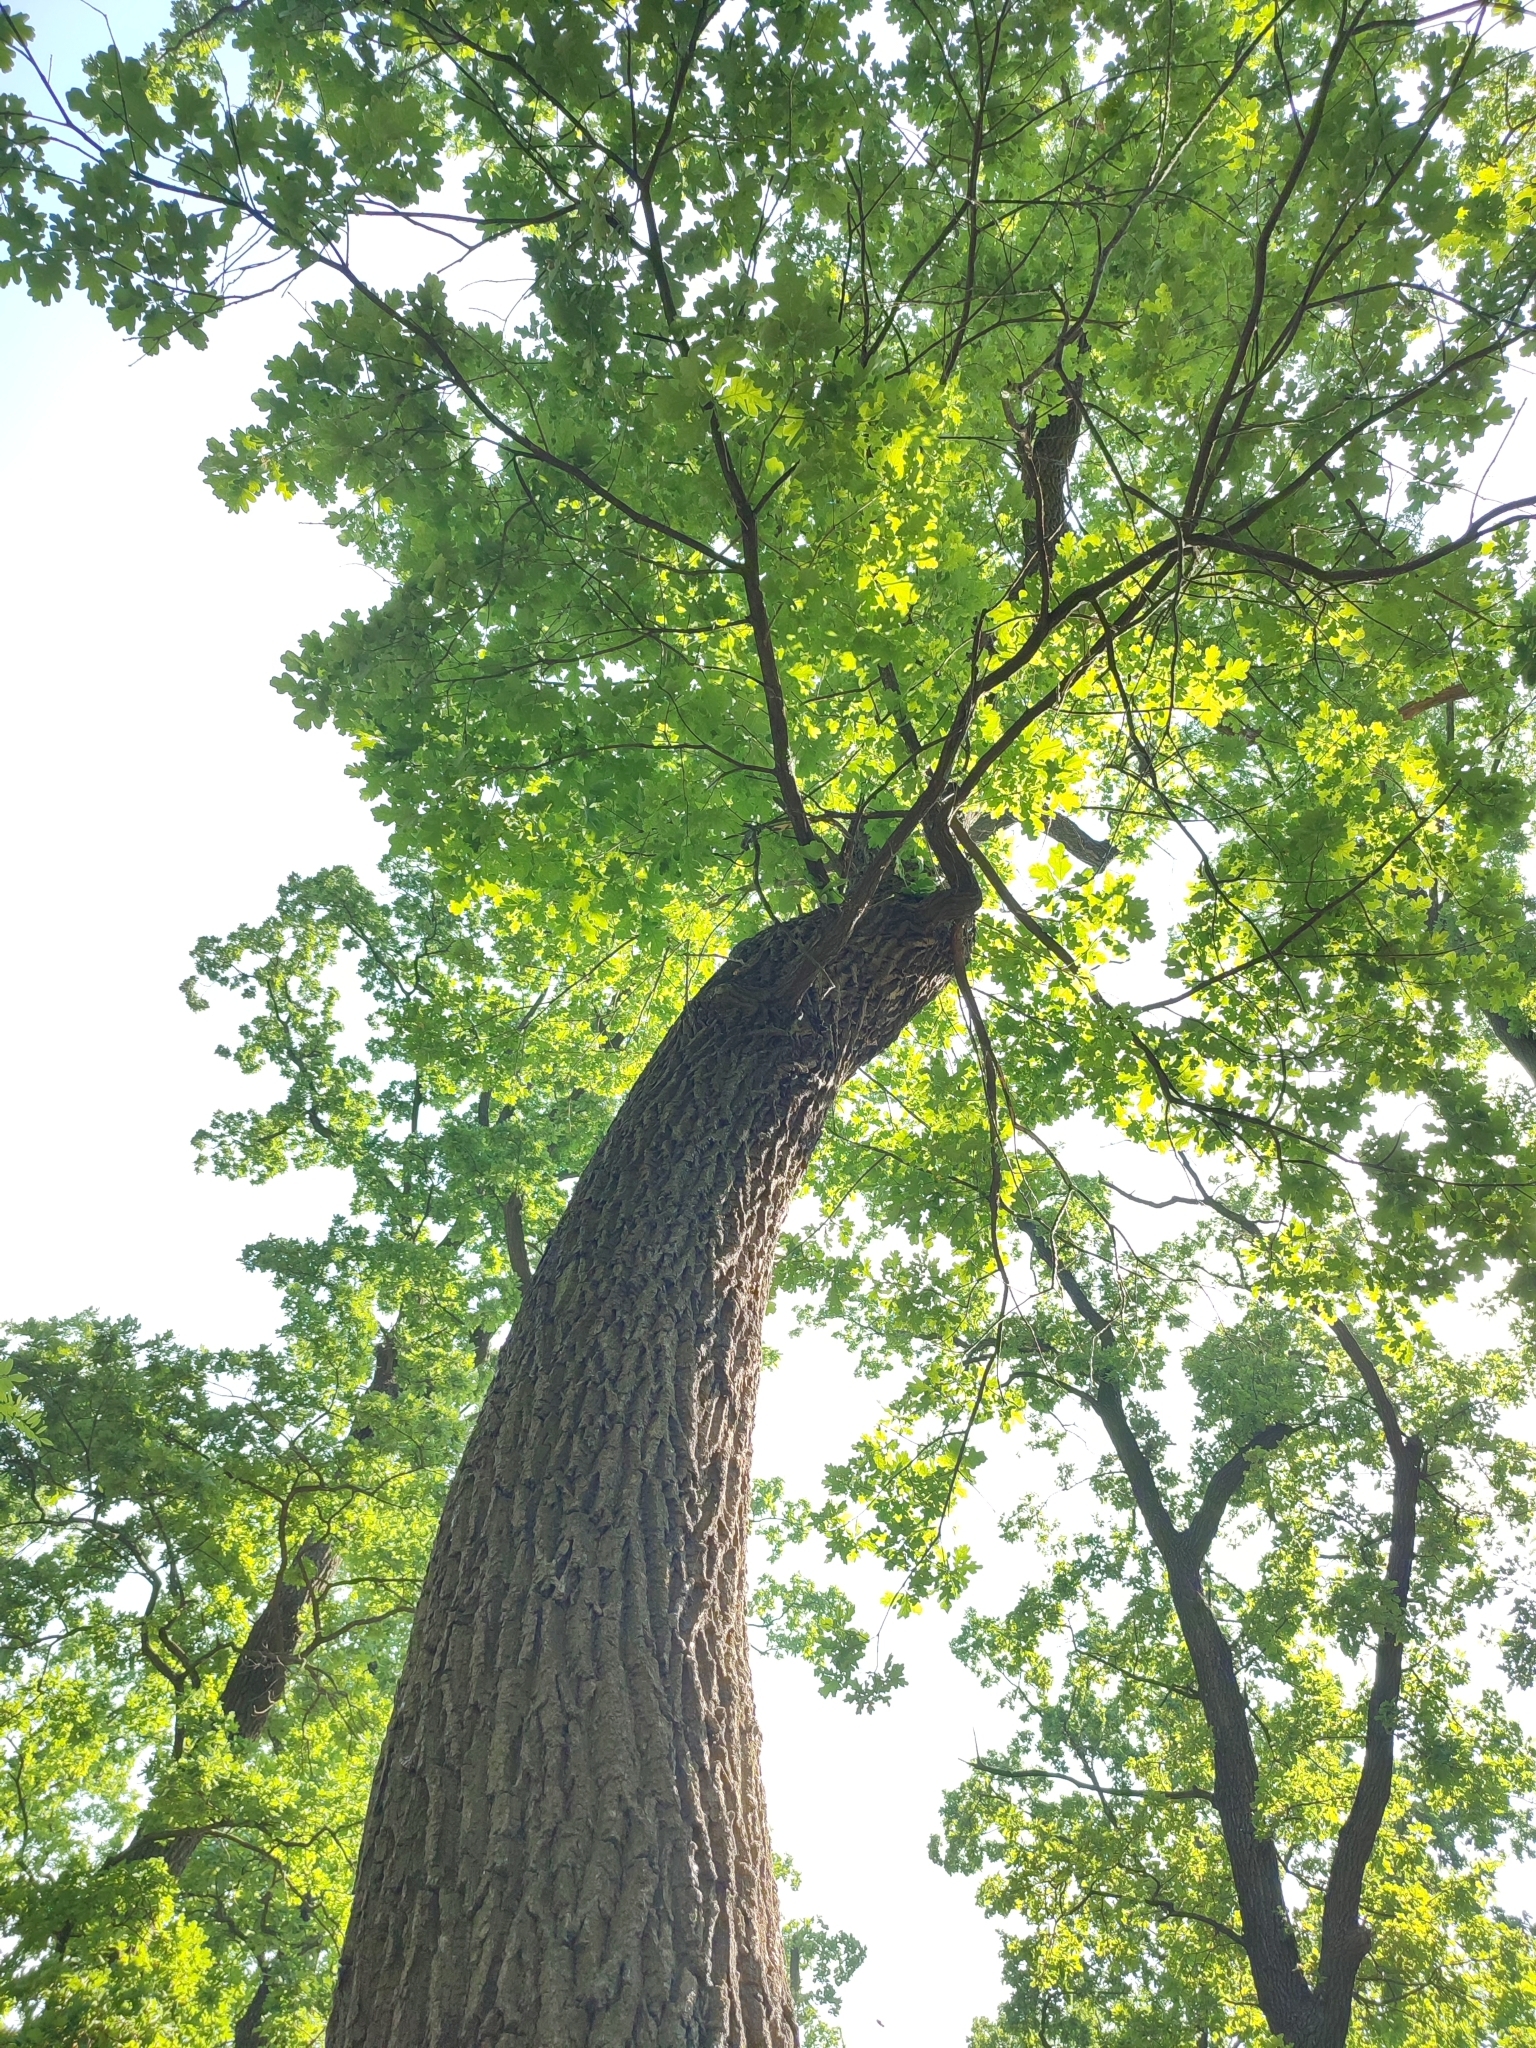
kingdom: Plantae
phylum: Tracheophyta
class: Magnoliopsida
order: Fagales
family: Fagaceae
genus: Quercus
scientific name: Quercus robur
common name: Pedunculate oak
